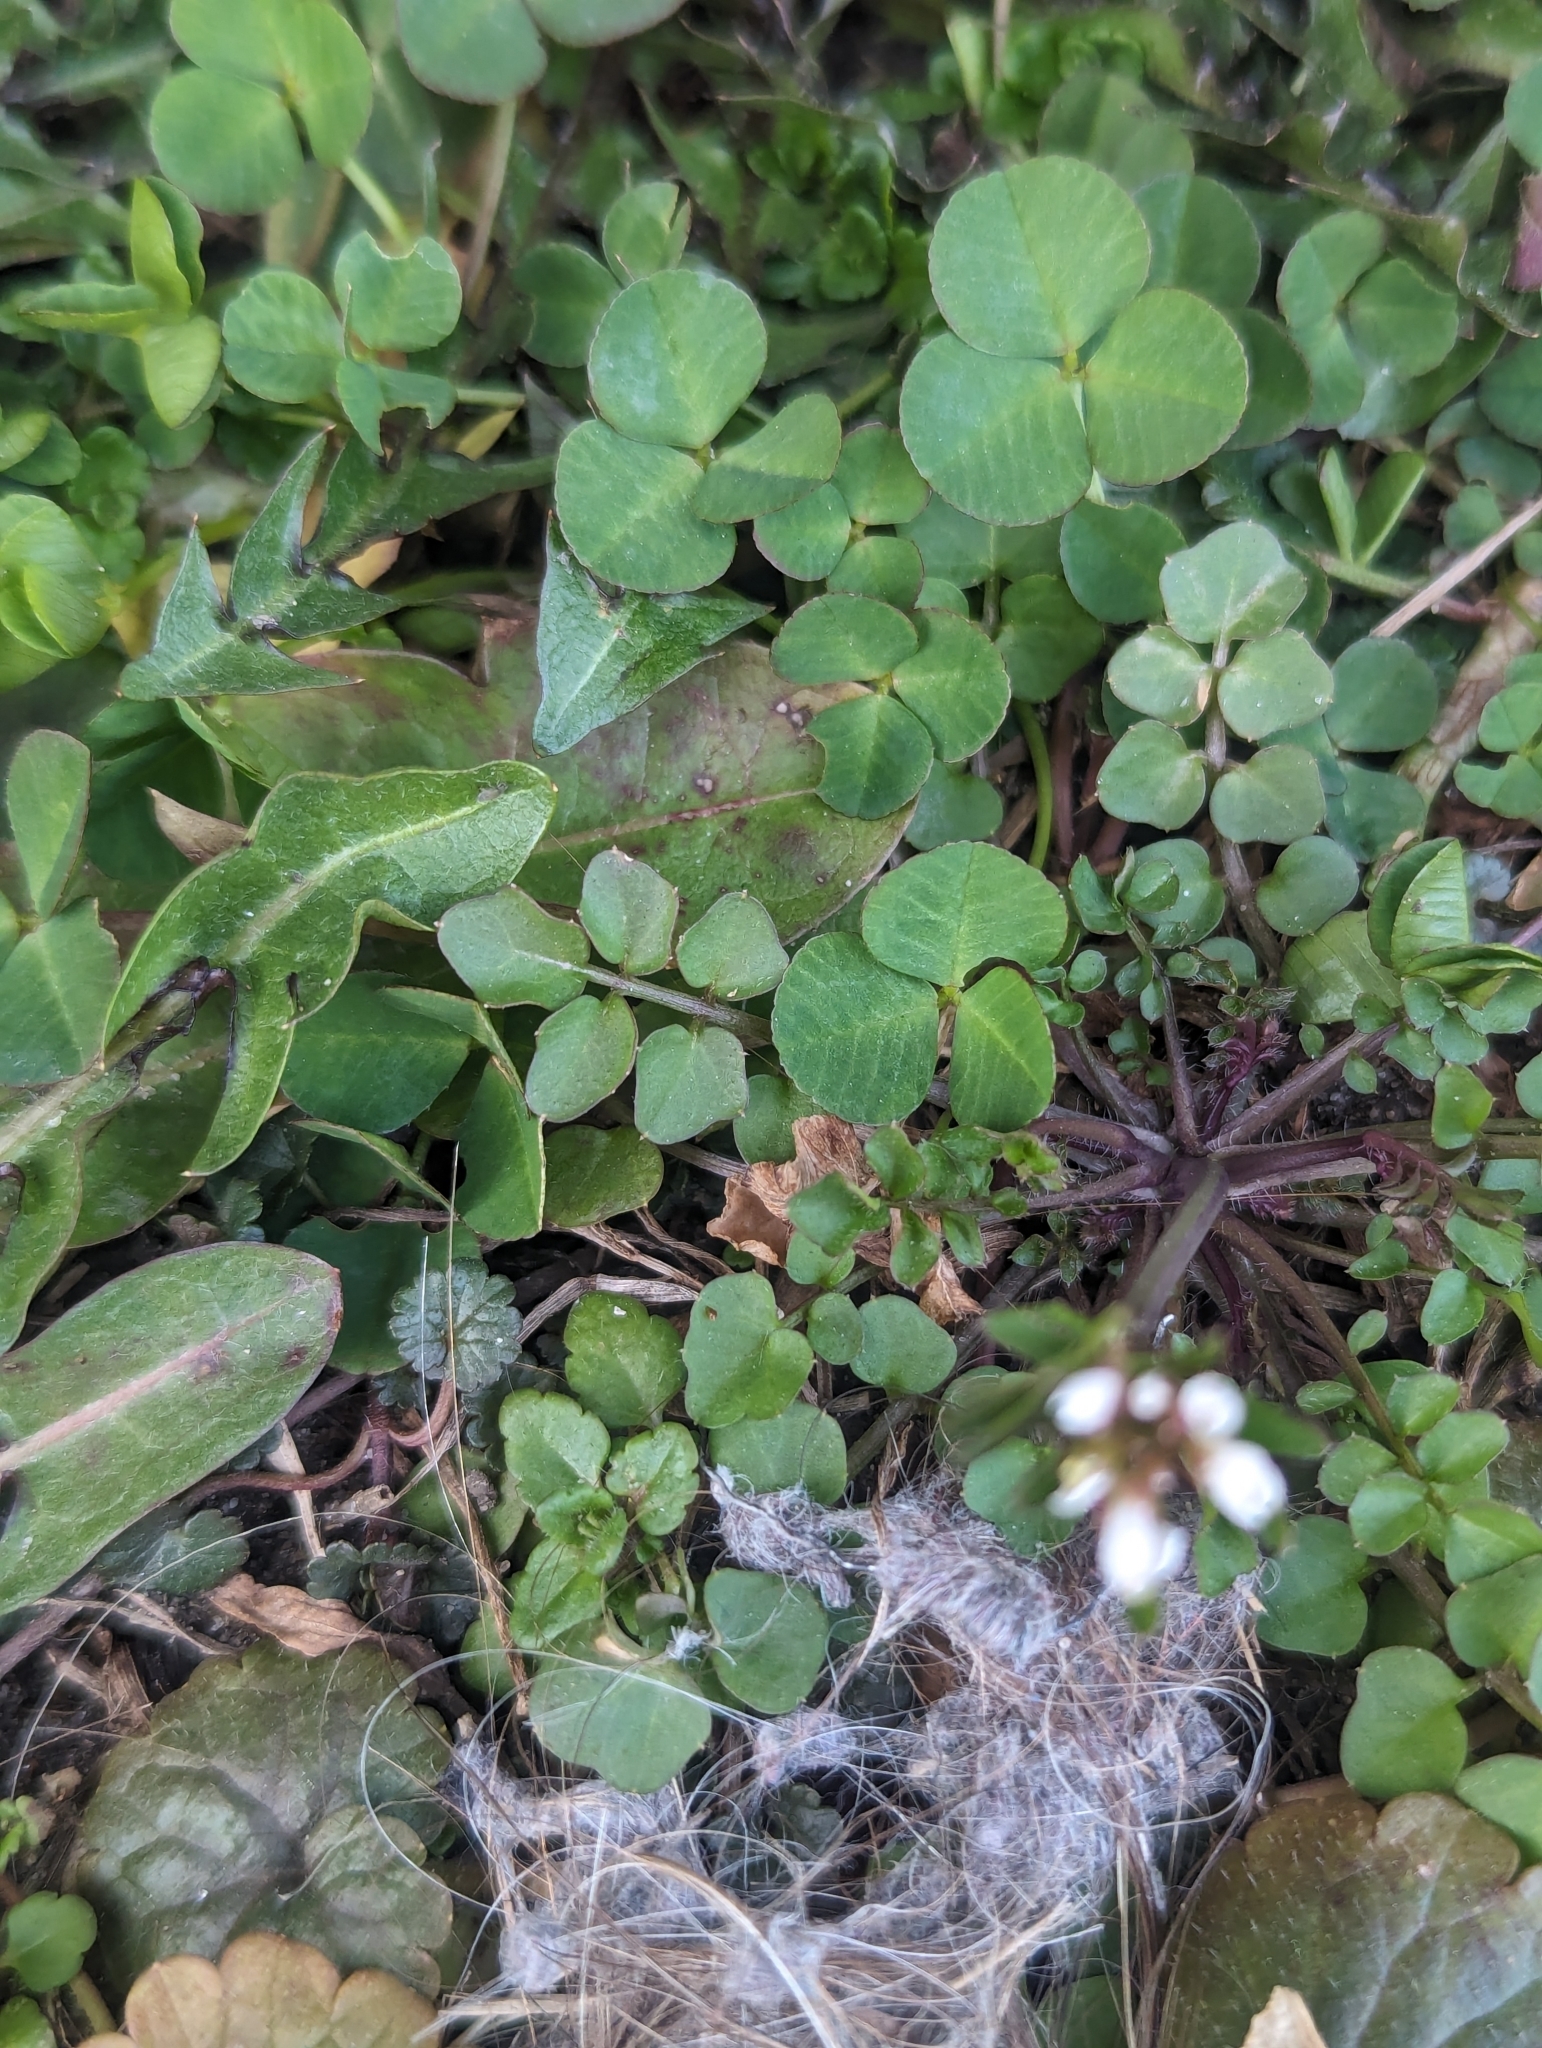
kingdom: Plantae
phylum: Tracheophyta
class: Magnoliopsida
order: Brassicales
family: Brassicaceae
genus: Cardamine
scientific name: Cardamine hirsuta
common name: Hairy bittercress
